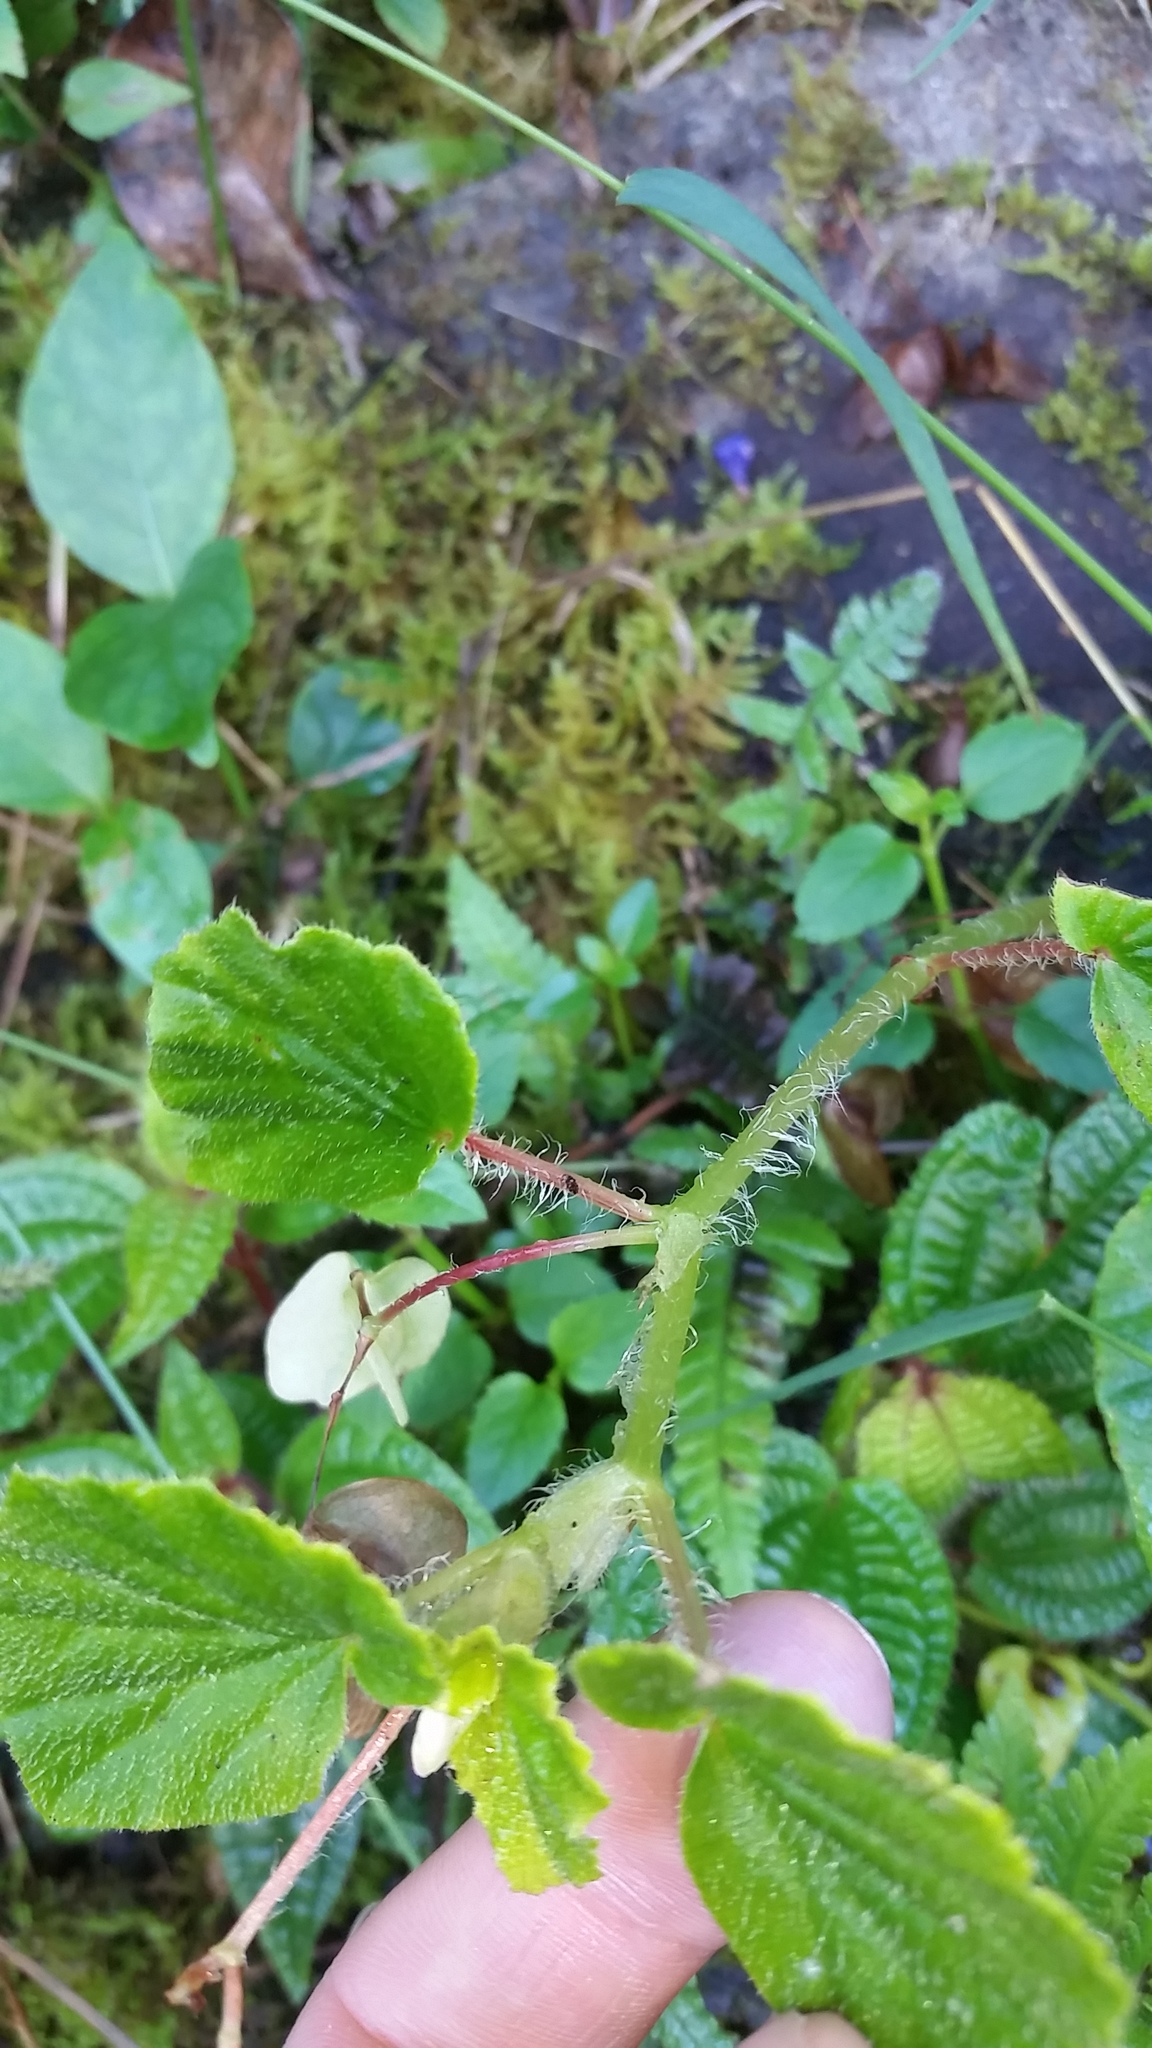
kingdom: Plantae
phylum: Tracheophyta
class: Magnoliopsida
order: Cucurbitales
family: Begoniaceae
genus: Begonia
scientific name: Begonia hirtella
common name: Brazilian begonia
